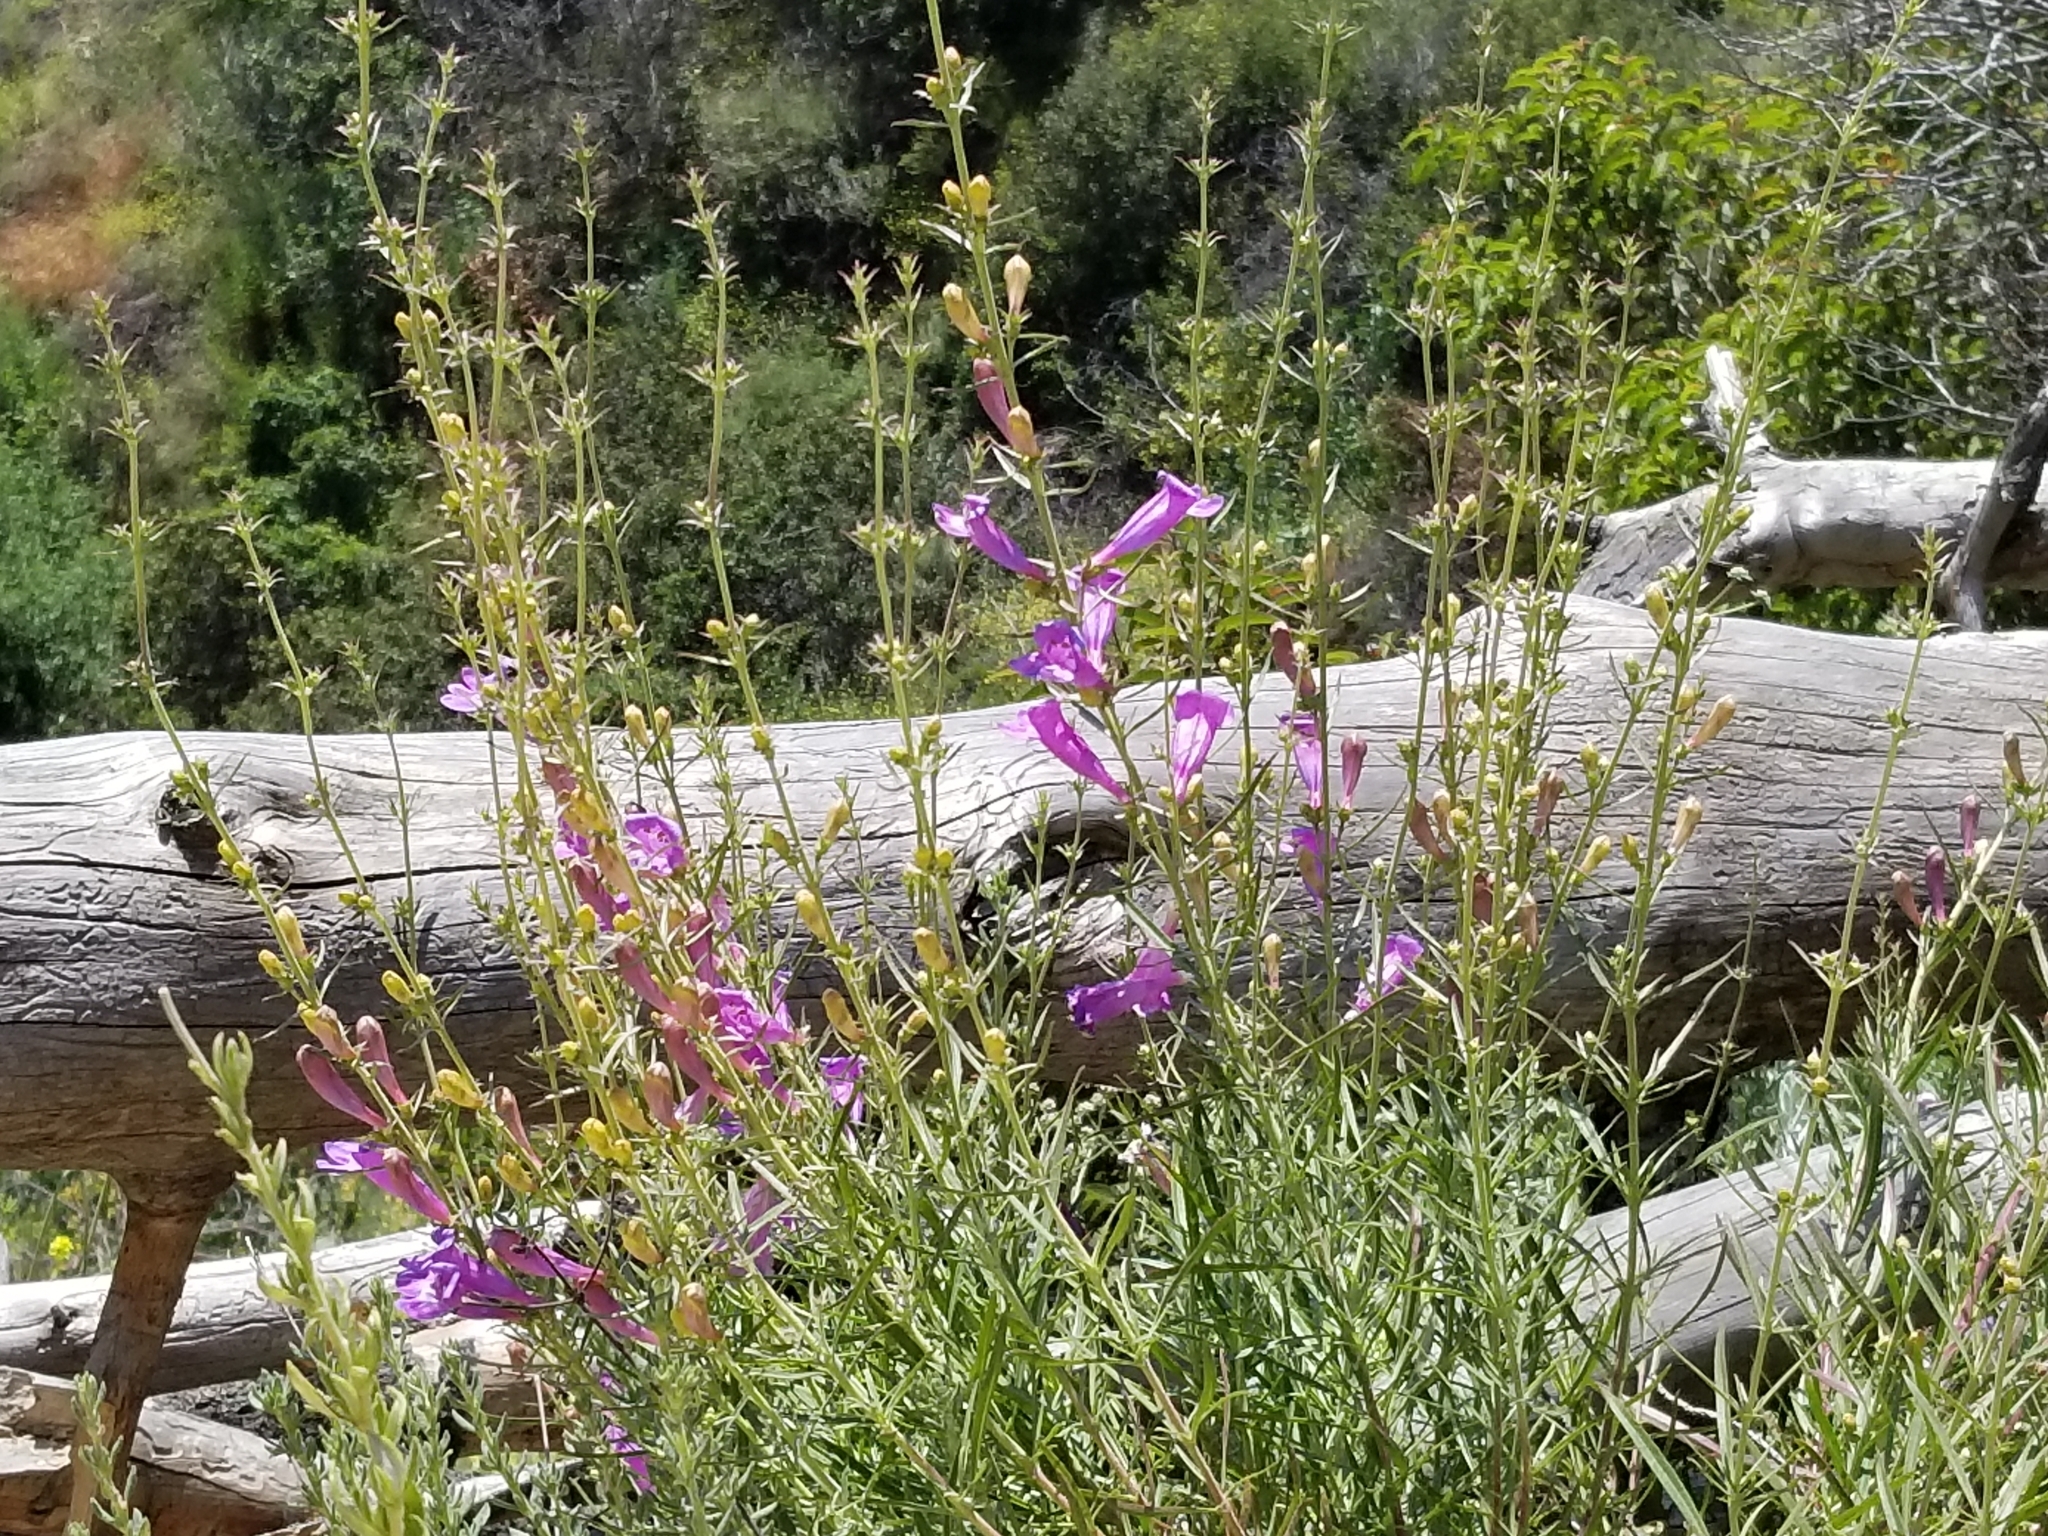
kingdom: Plantae
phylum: Tracheophyta
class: Magnoliopsida
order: Lamiales
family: Plantaginaceae
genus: Penstemon
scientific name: Penstemon heterophyllus
